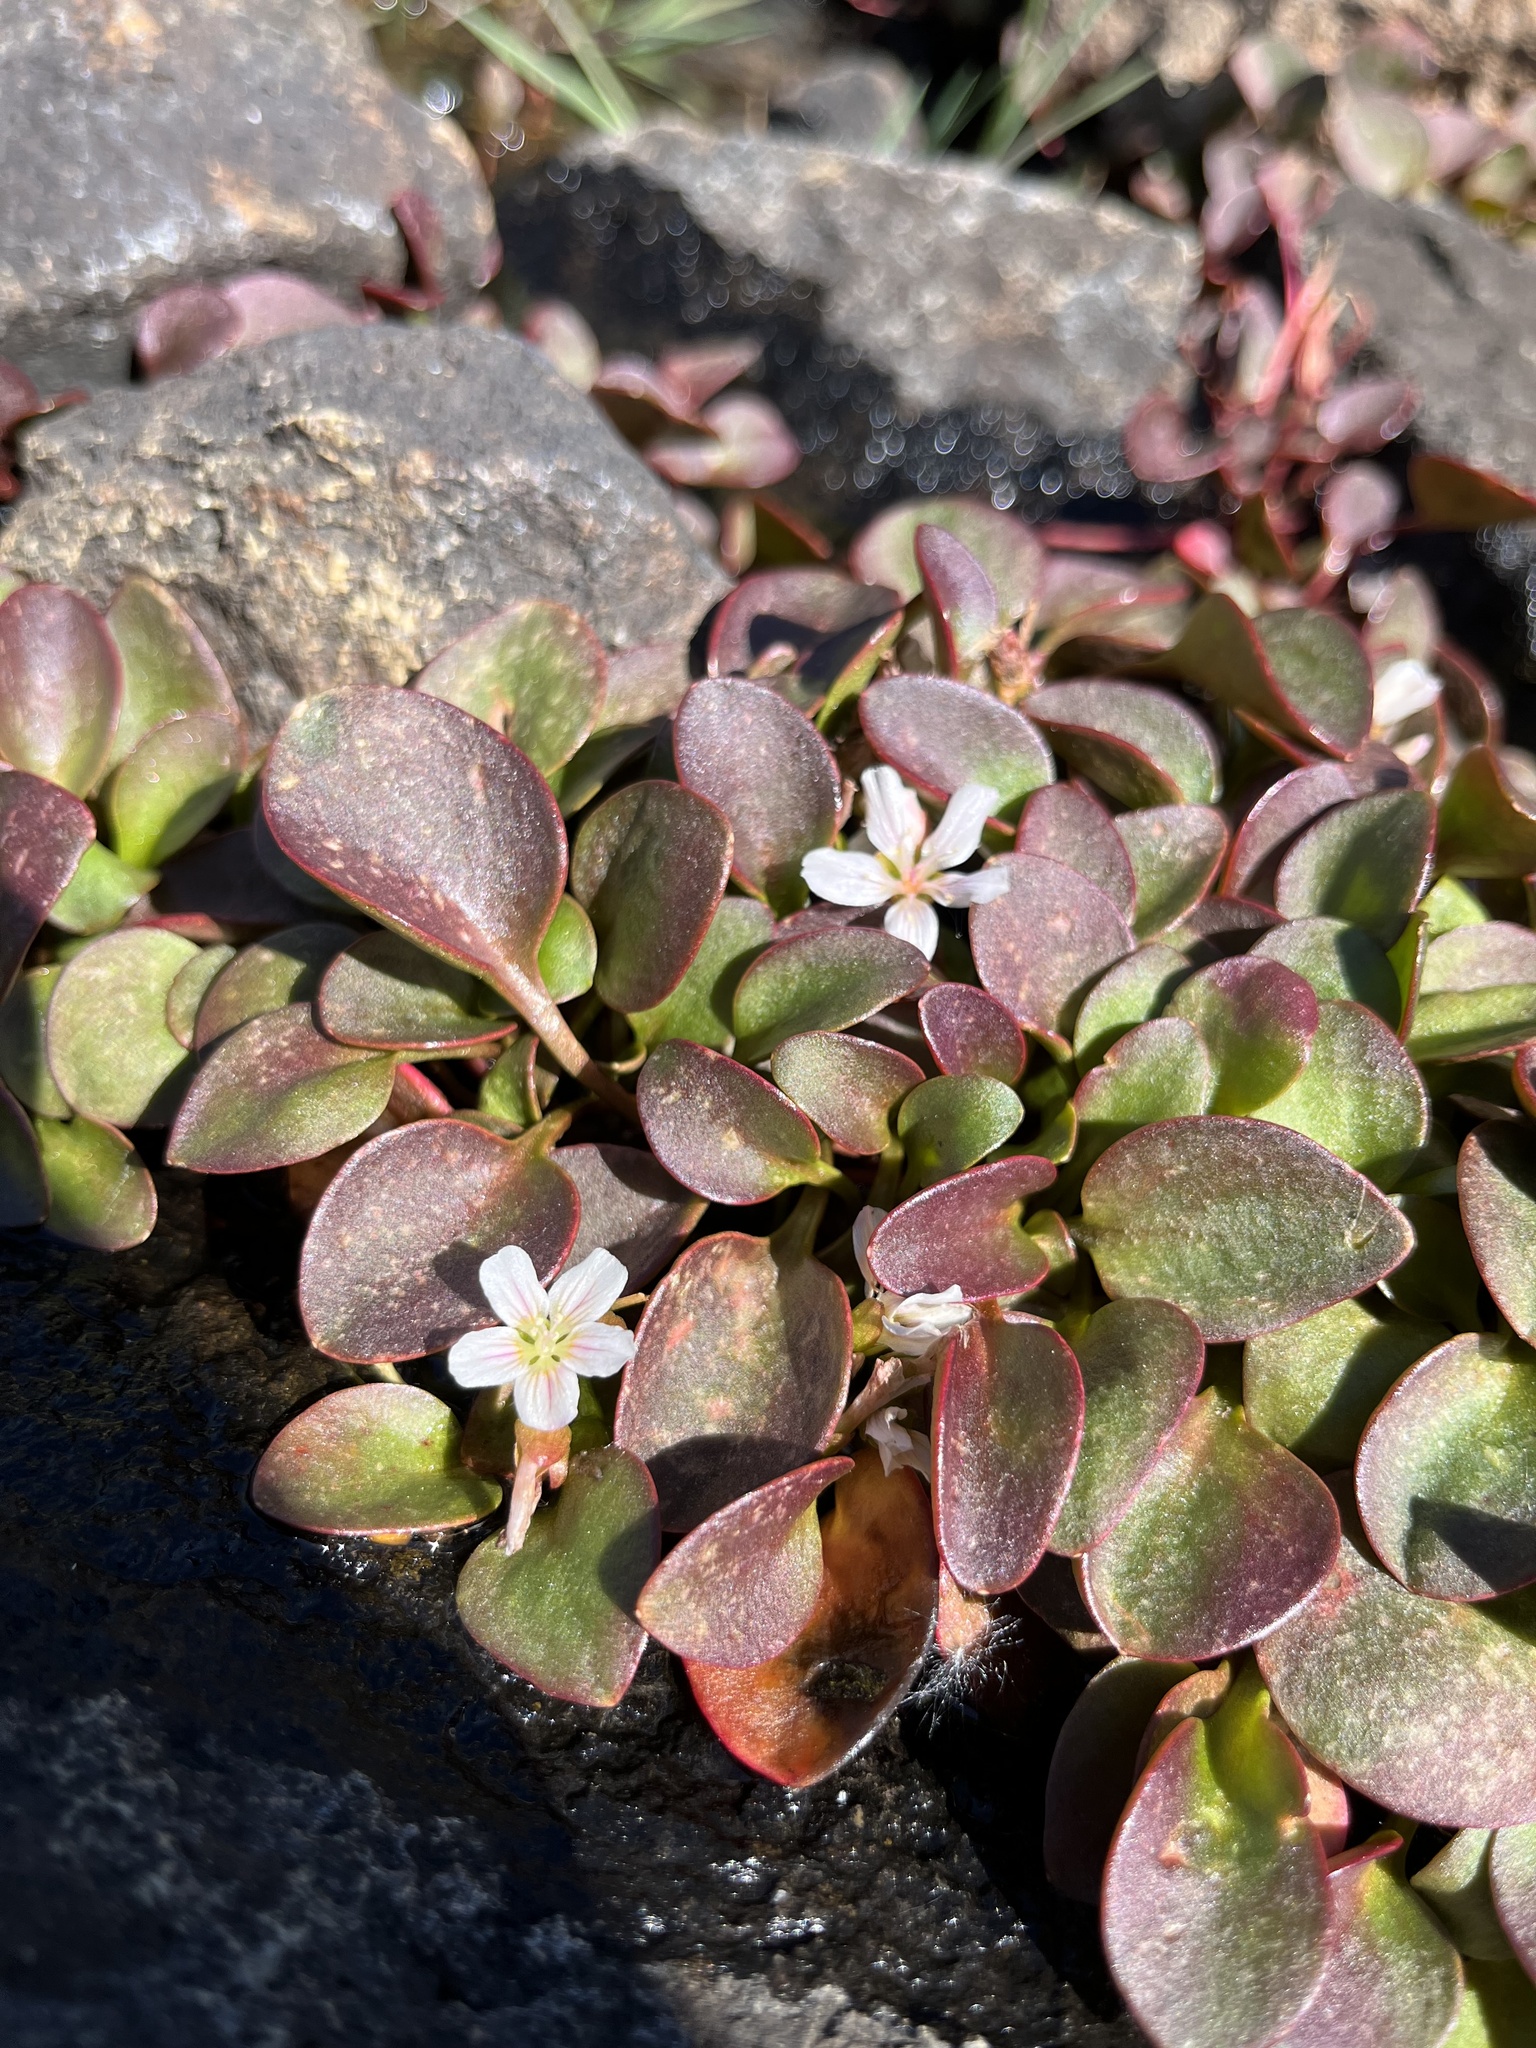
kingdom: Plantae
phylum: Tracheophyta
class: Magnoliopsida
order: Caryophyllales
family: Montiaceae
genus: Claytonia
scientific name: Claytonia nevadensis
